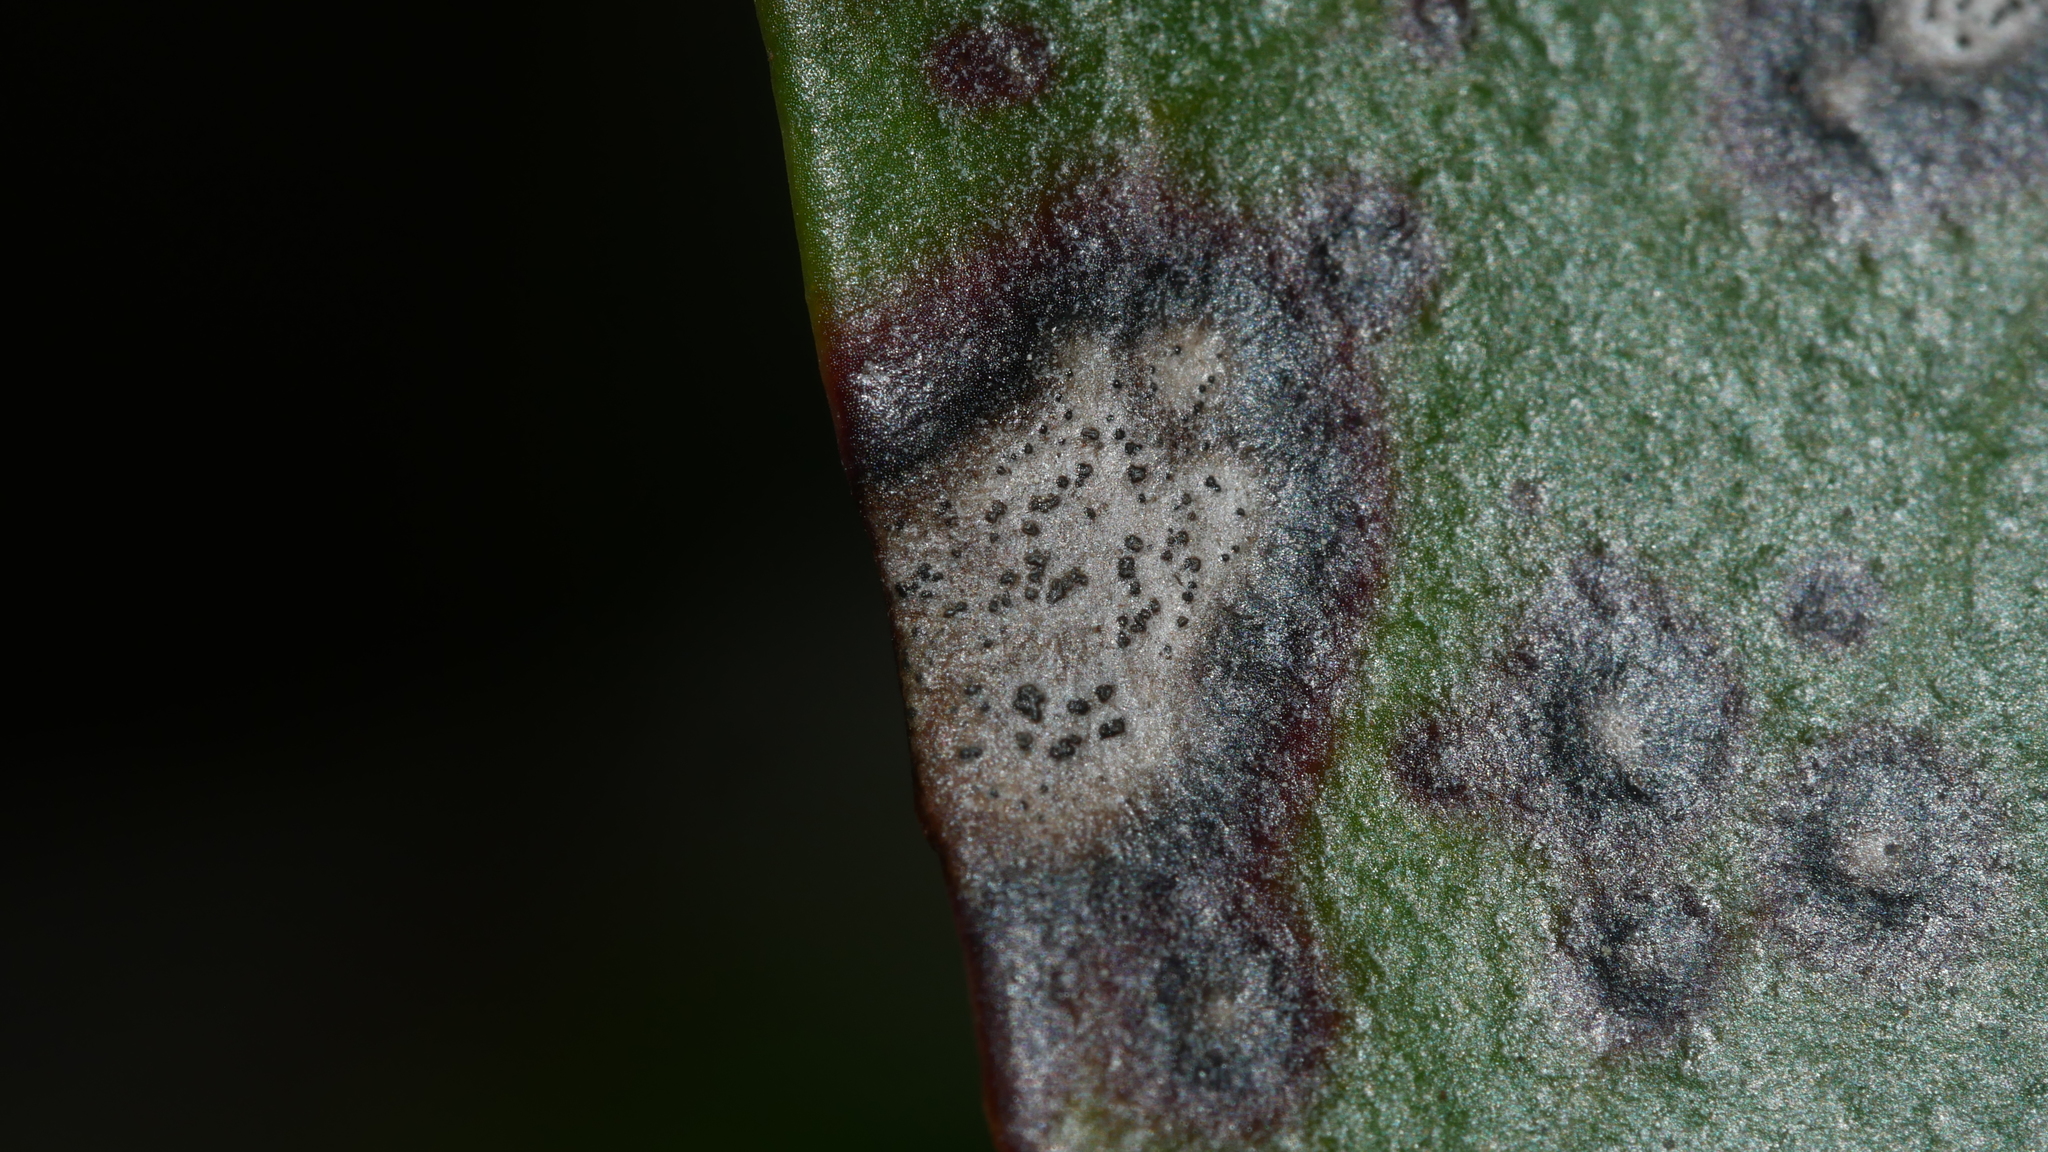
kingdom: Fungi
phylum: Ascomycota
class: Dothideomycetes
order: Mycosphaerellales
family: Mycosphaerellaceae
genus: Mycosphaerella
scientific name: Mycosphaerella colorata
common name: Mountain laurel leaf spot
